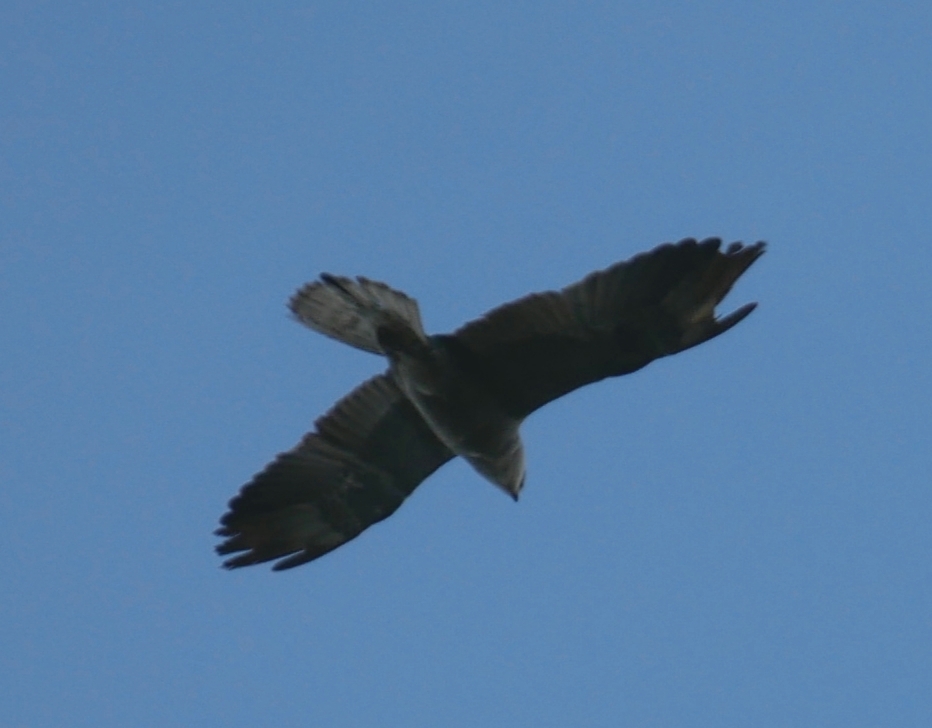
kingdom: Animalia
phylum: Chordata
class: Aves
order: Accipitriformes
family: Accipitridae
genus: Ictinia
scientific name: Ictinia mississippiensis
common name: Mississippi kite
